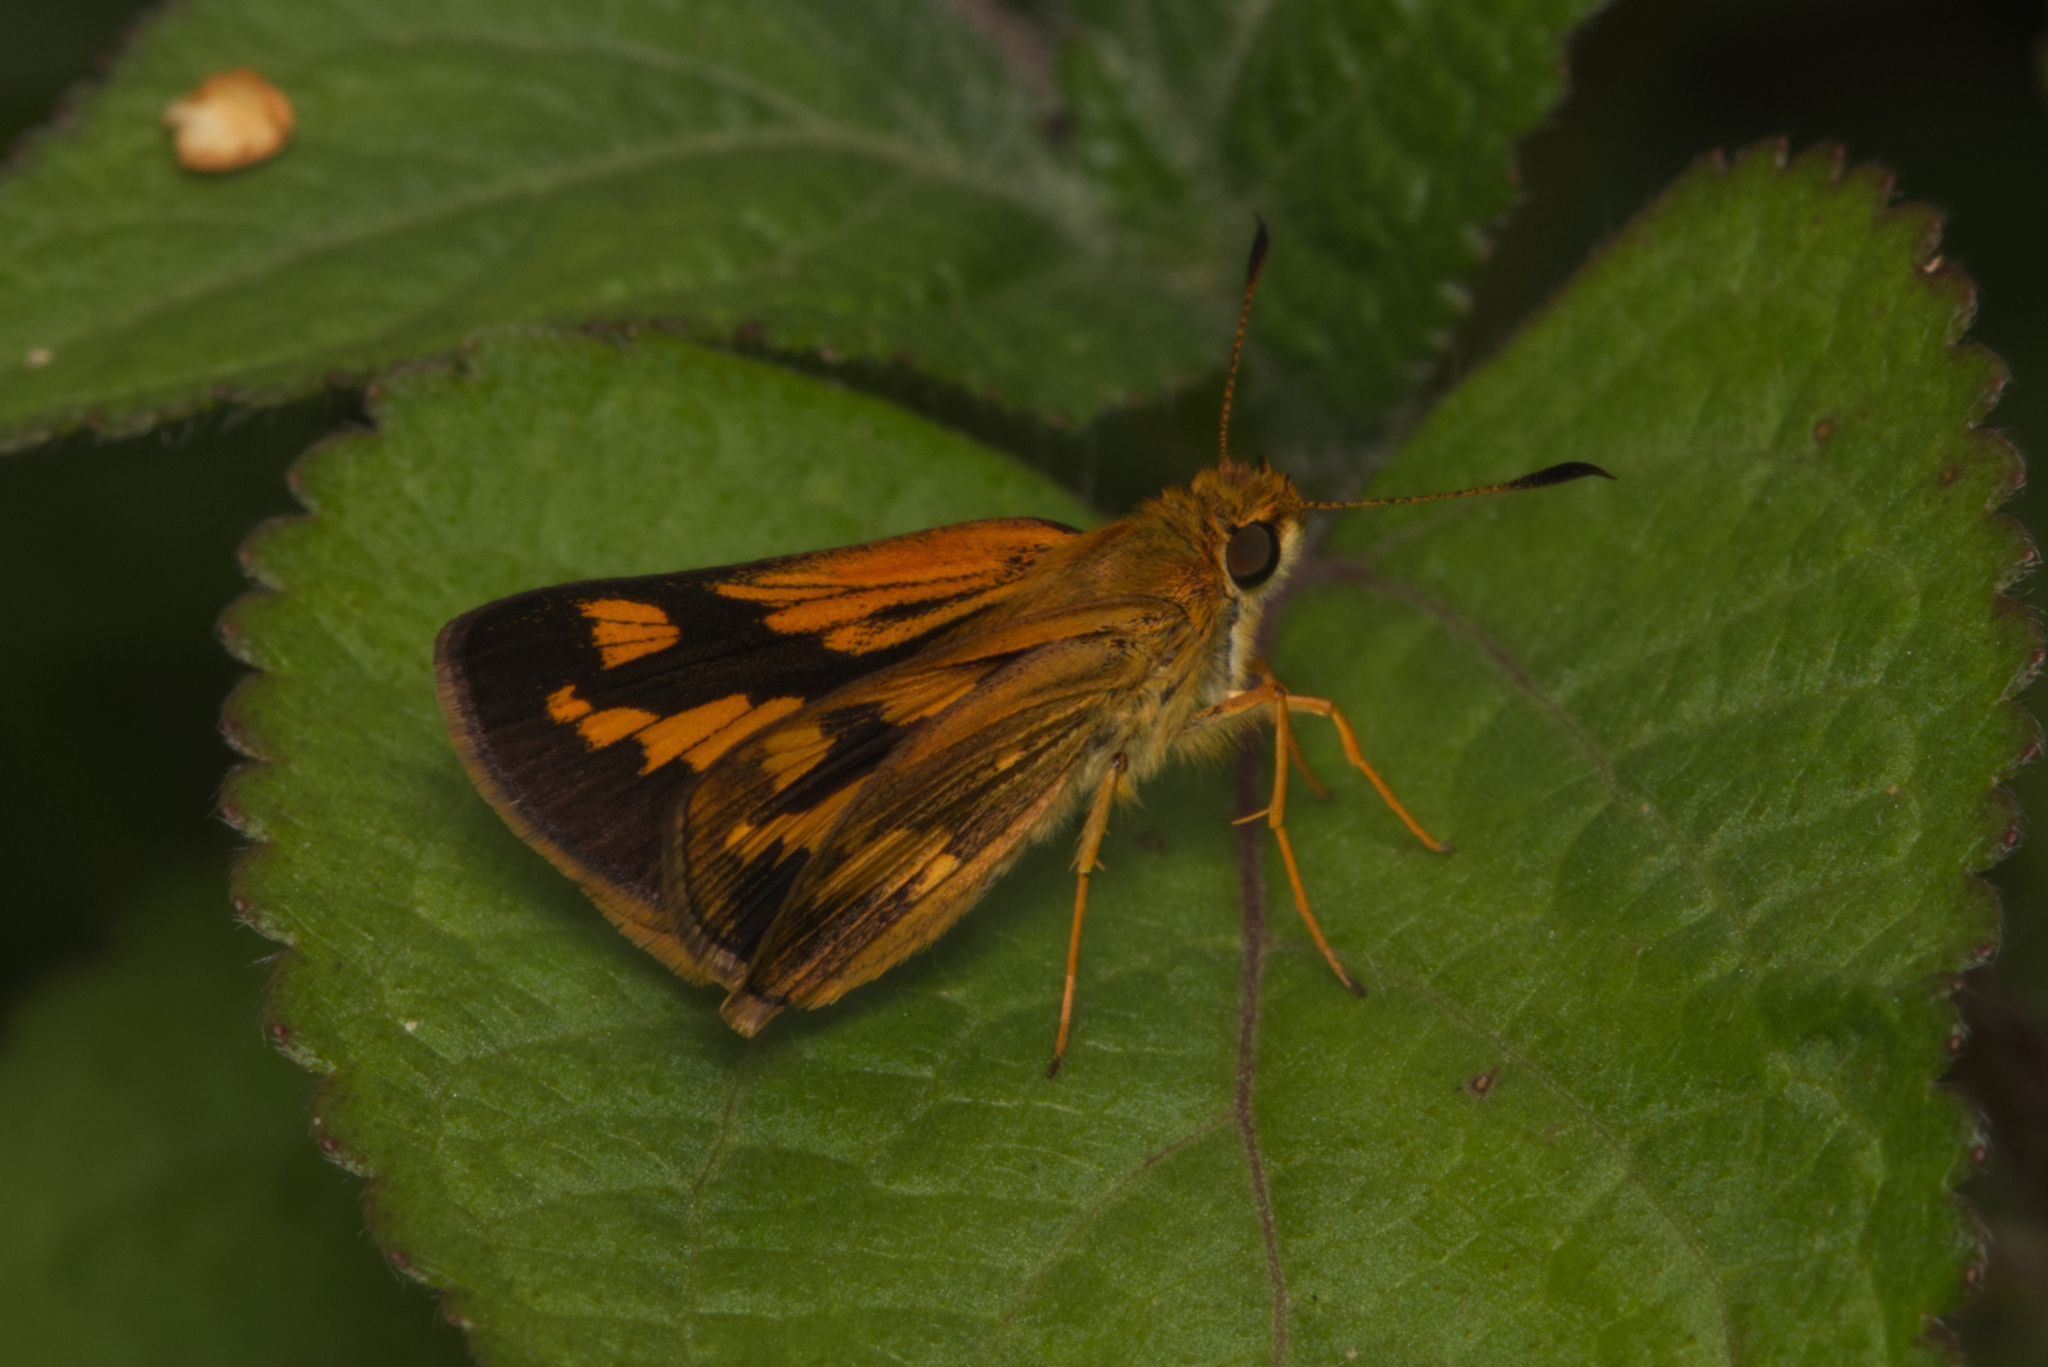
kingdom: Animalia
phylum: Arthropoda
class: Insecta
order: Lepidoptera
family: Hesperiidae
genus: Arrhenes
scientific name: Arrhenes marnas
